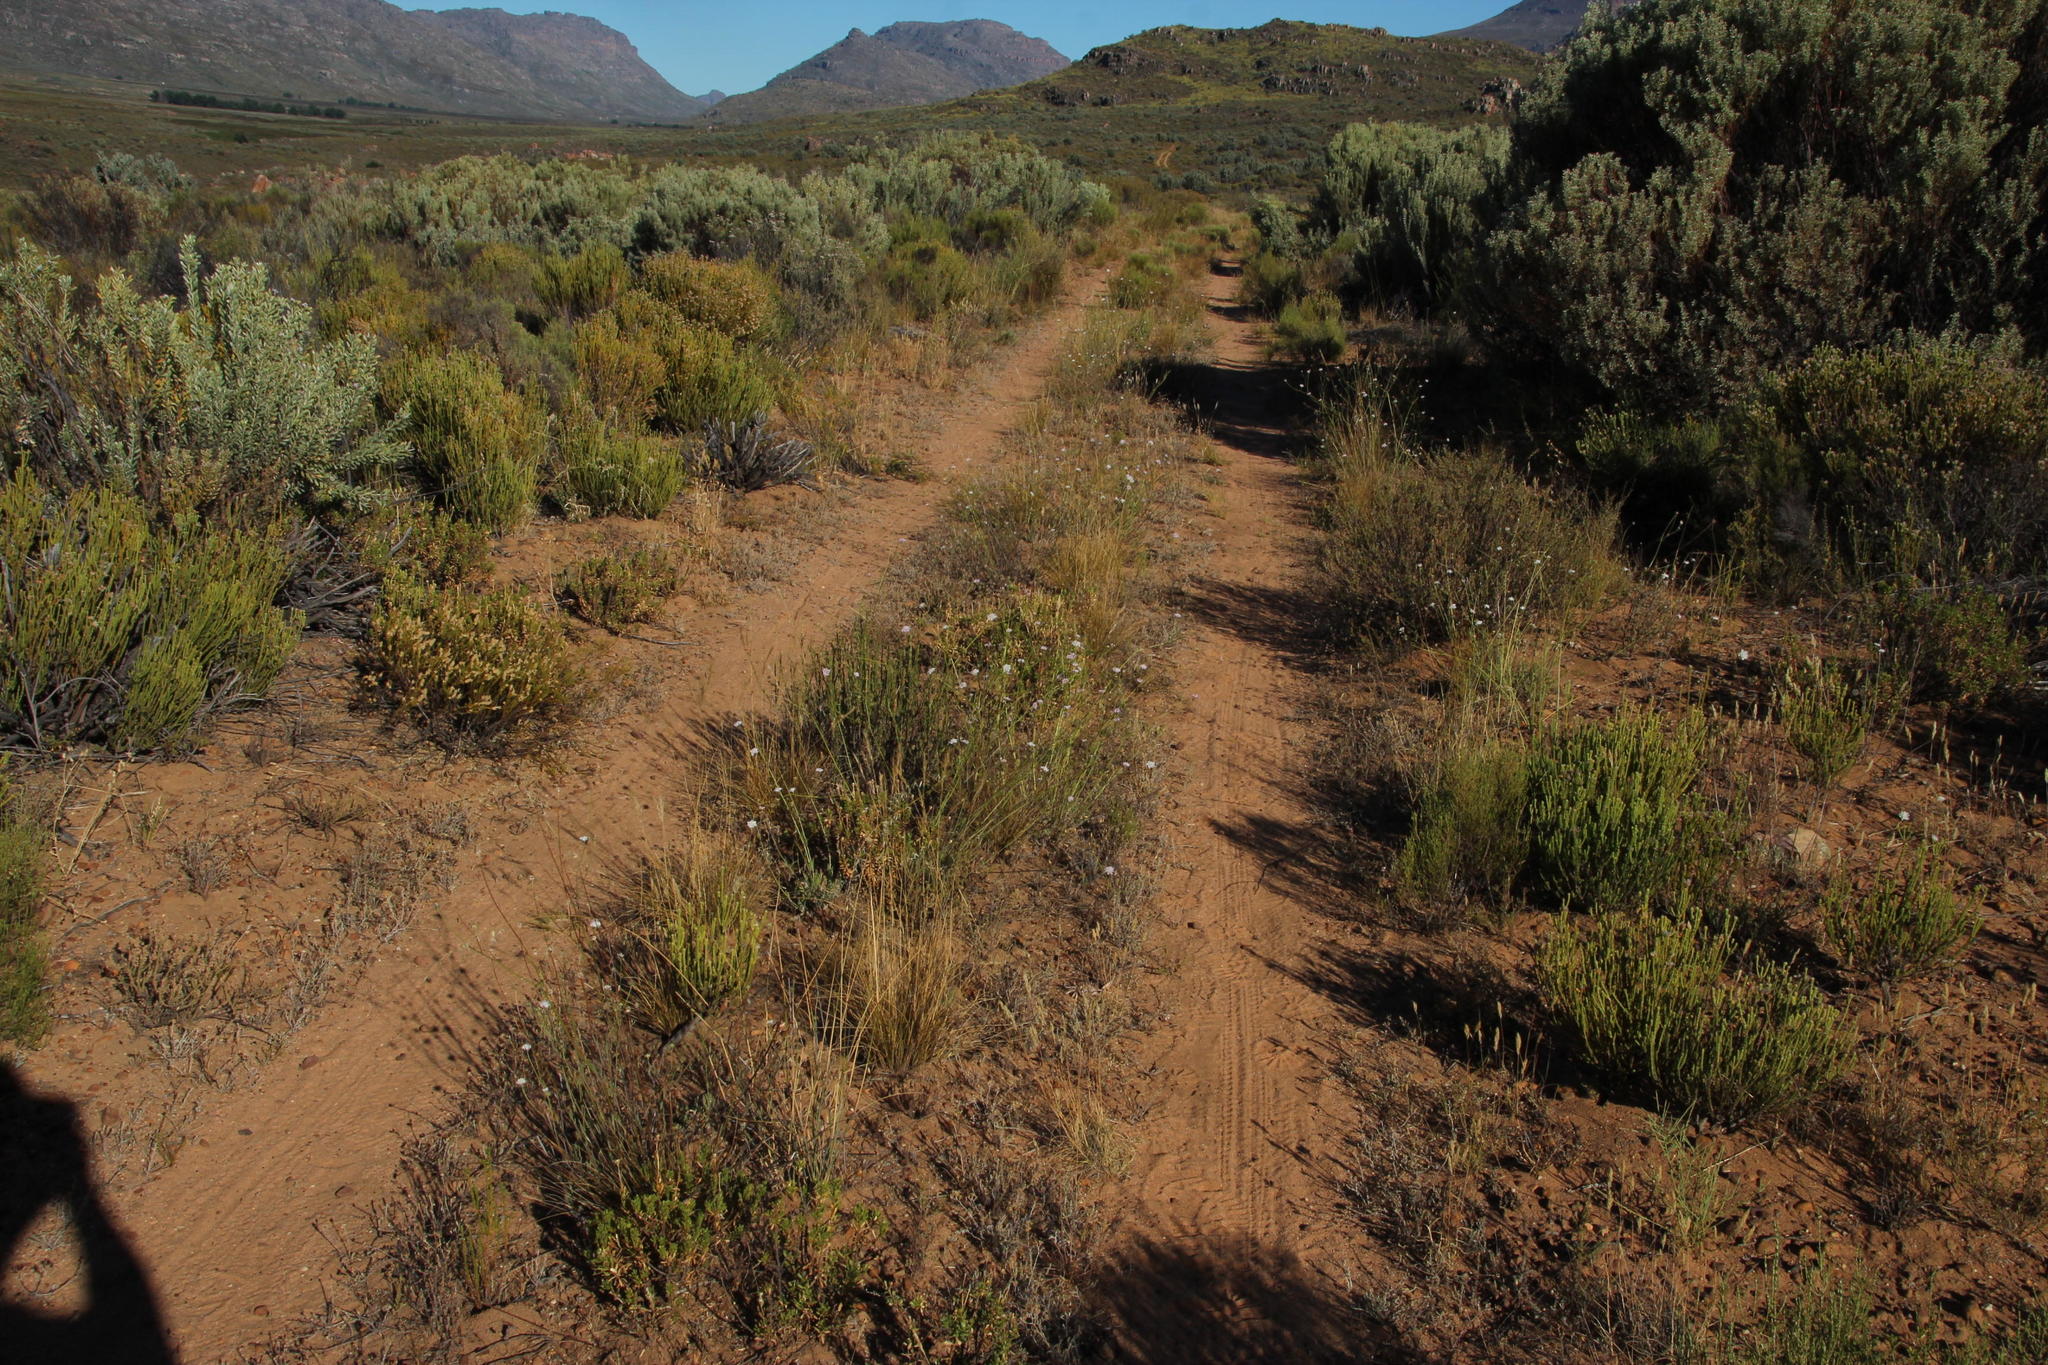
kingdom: Plantae
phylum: Tracheophyta
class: Magnoliopsida
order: Dipsacales
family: Caprifoliaceae
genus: Scabiosa
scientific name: Scabiosa columbaria
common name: Small scabious
